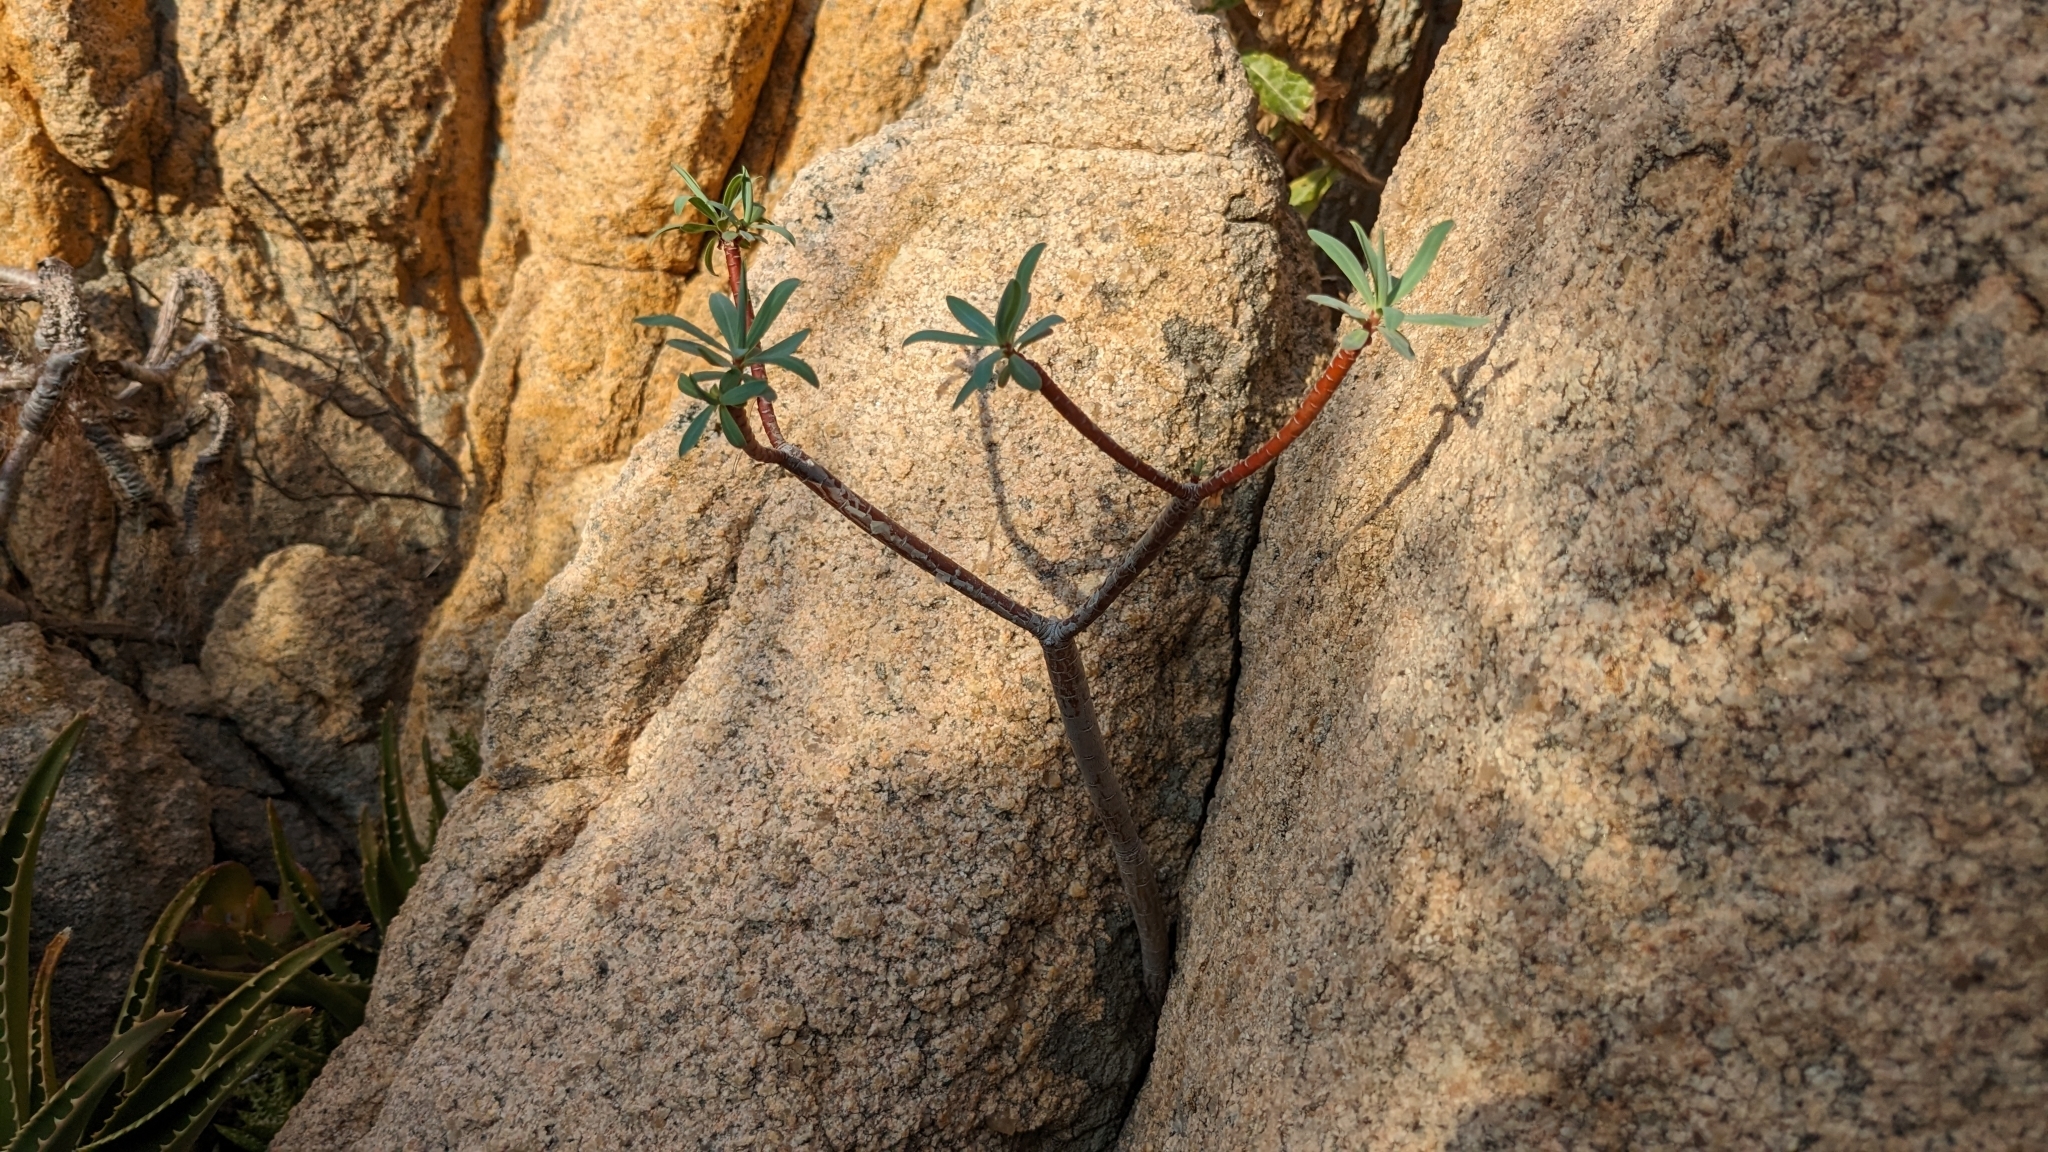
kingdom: Plantae
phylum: Tracheophyta
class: Magnoliopsida
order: Malpighiales
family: Euphorbiaceae
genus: Euphorbia
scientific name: Euphorbia dendroides
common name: Tree spurge
